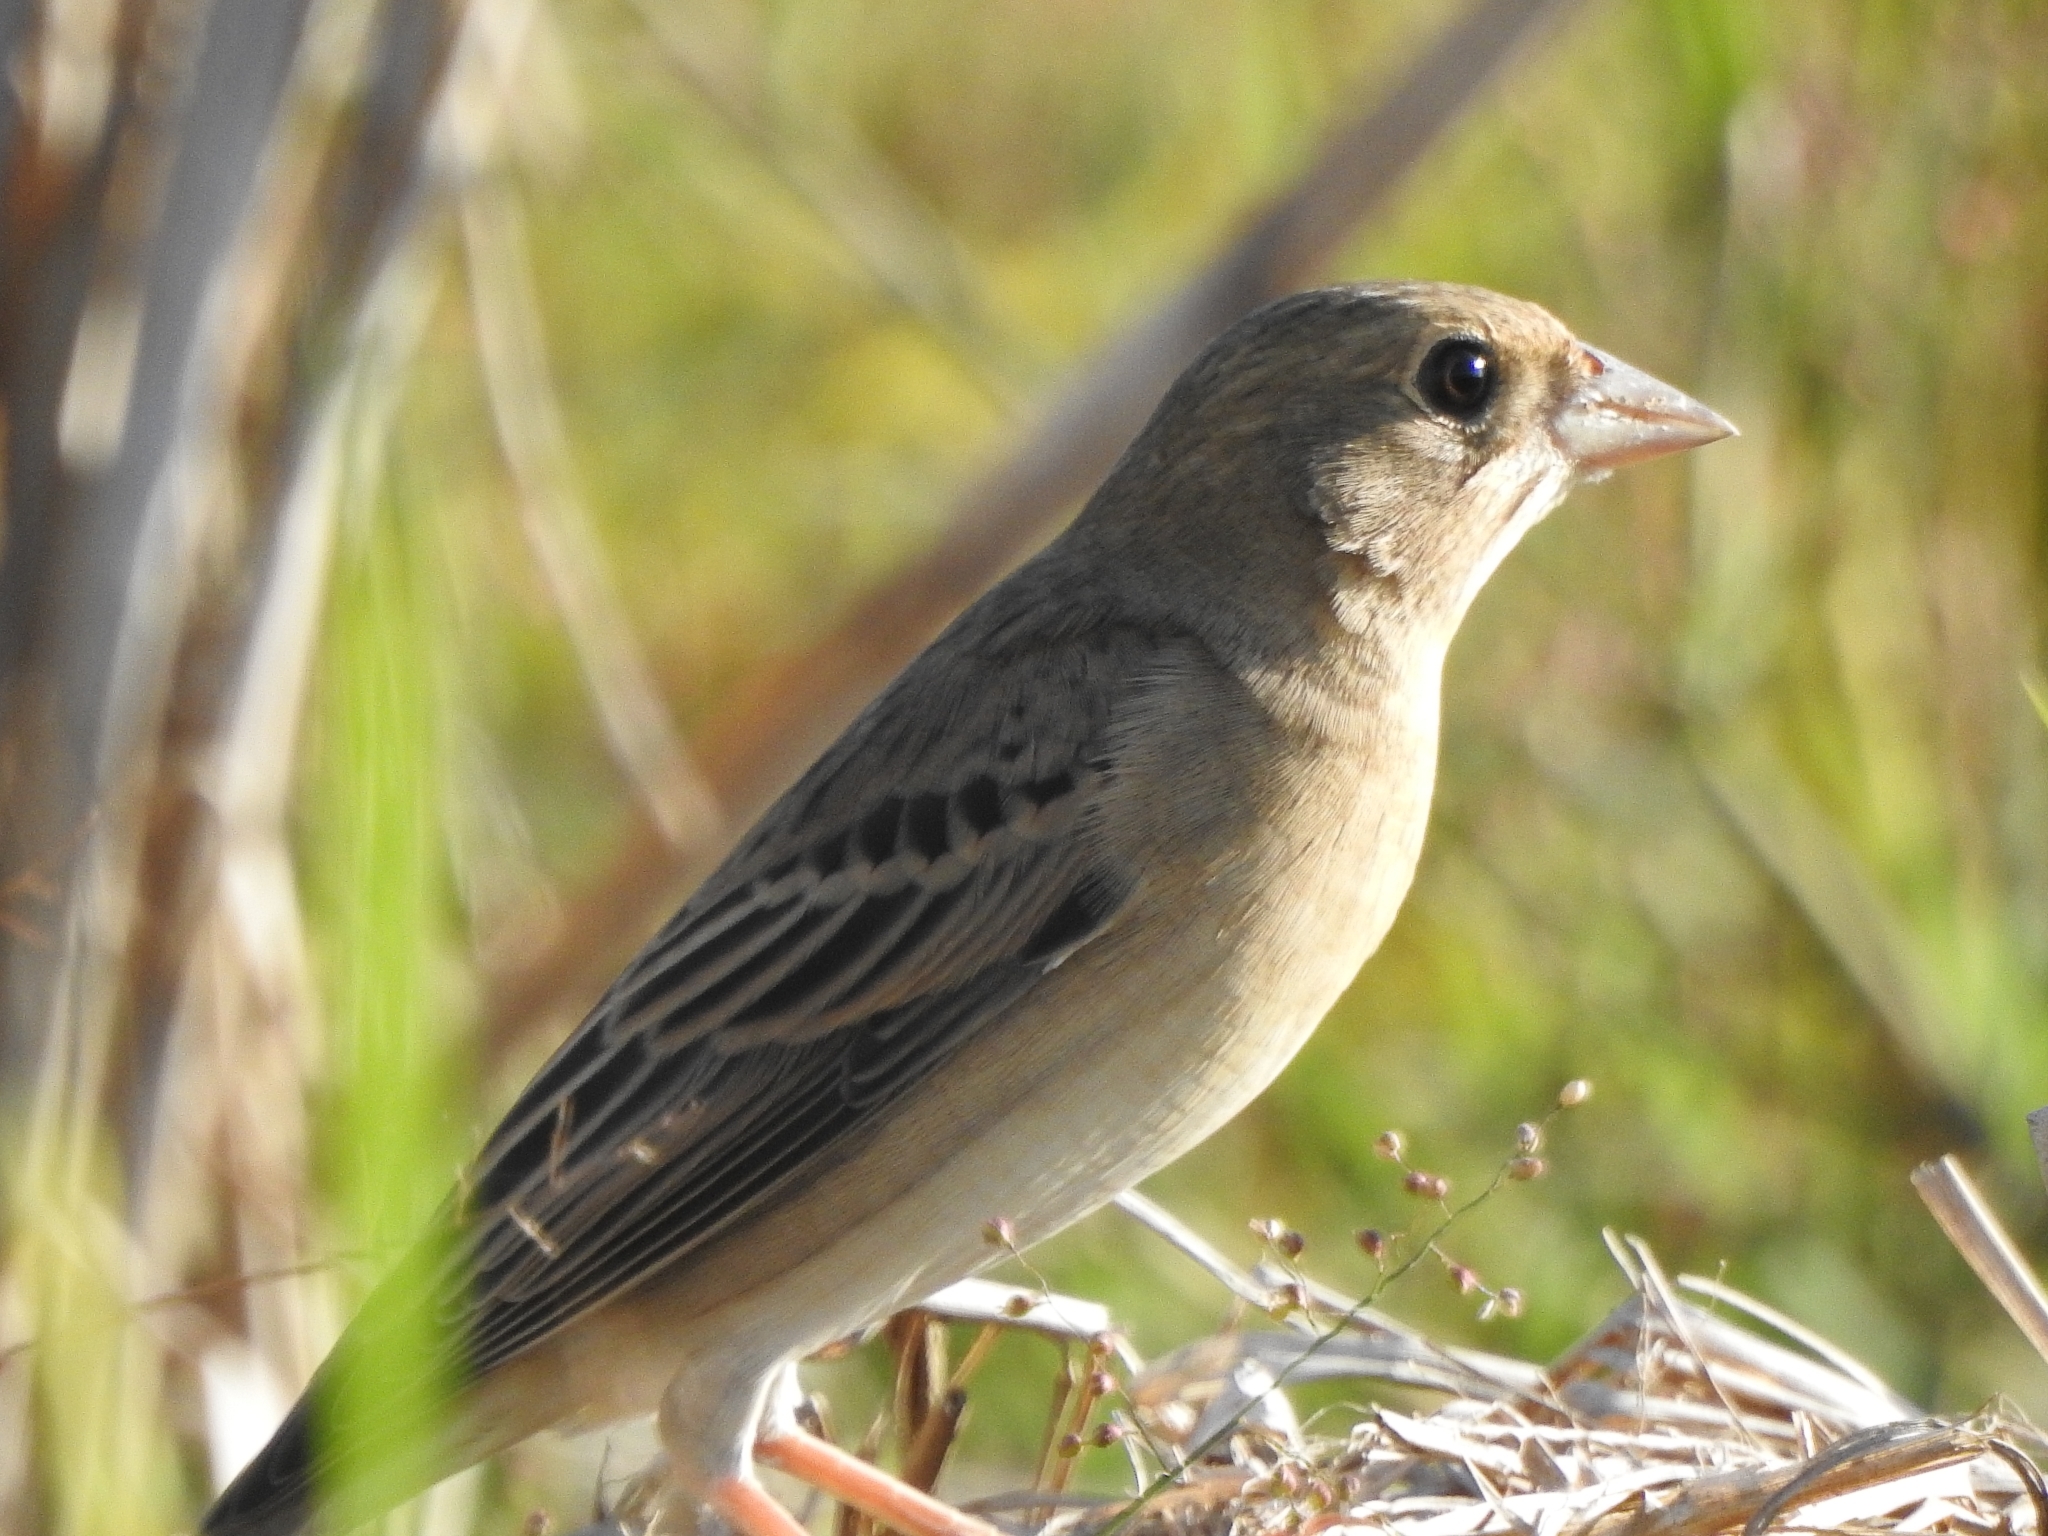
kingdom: Animalia
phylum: Chordata
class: Aves
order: Passeriformes
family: Emberizidae
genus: Emberiza
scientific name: Emberiza bruniceps
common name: Red-headed bunting
